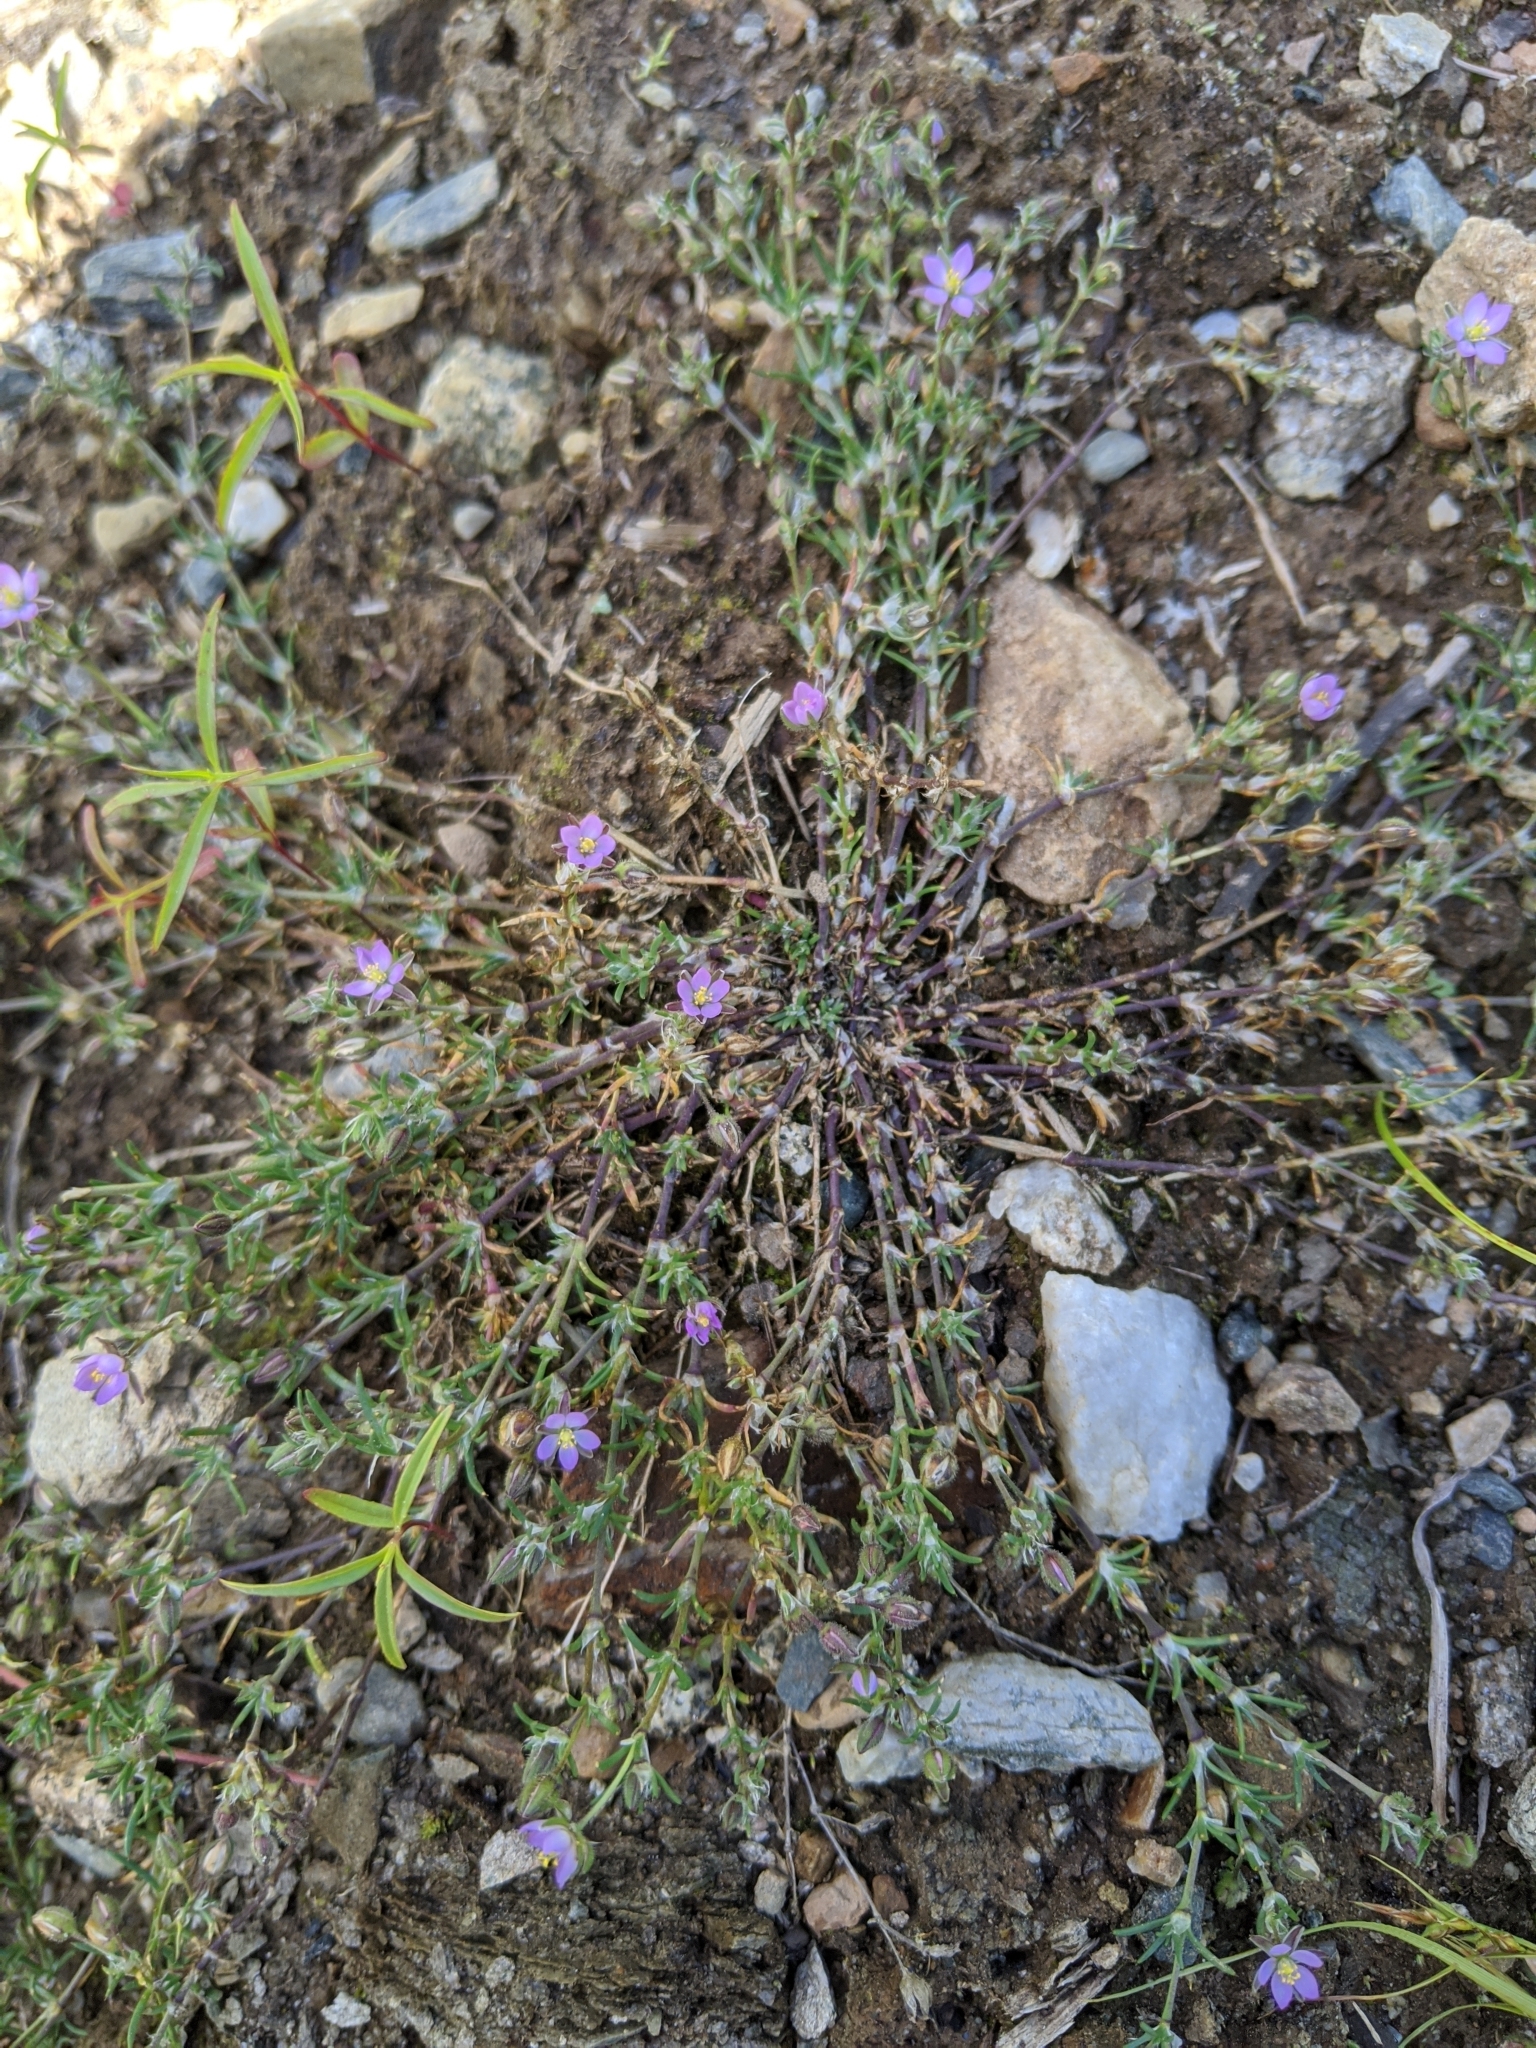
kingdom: Plantae
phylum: Tracheophyta
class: Magnoliopsida
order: Caryophyllales
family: Caryophyllaceae
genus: Spergularia
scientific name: Spergularia rubra
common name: Red sand-spurrey
